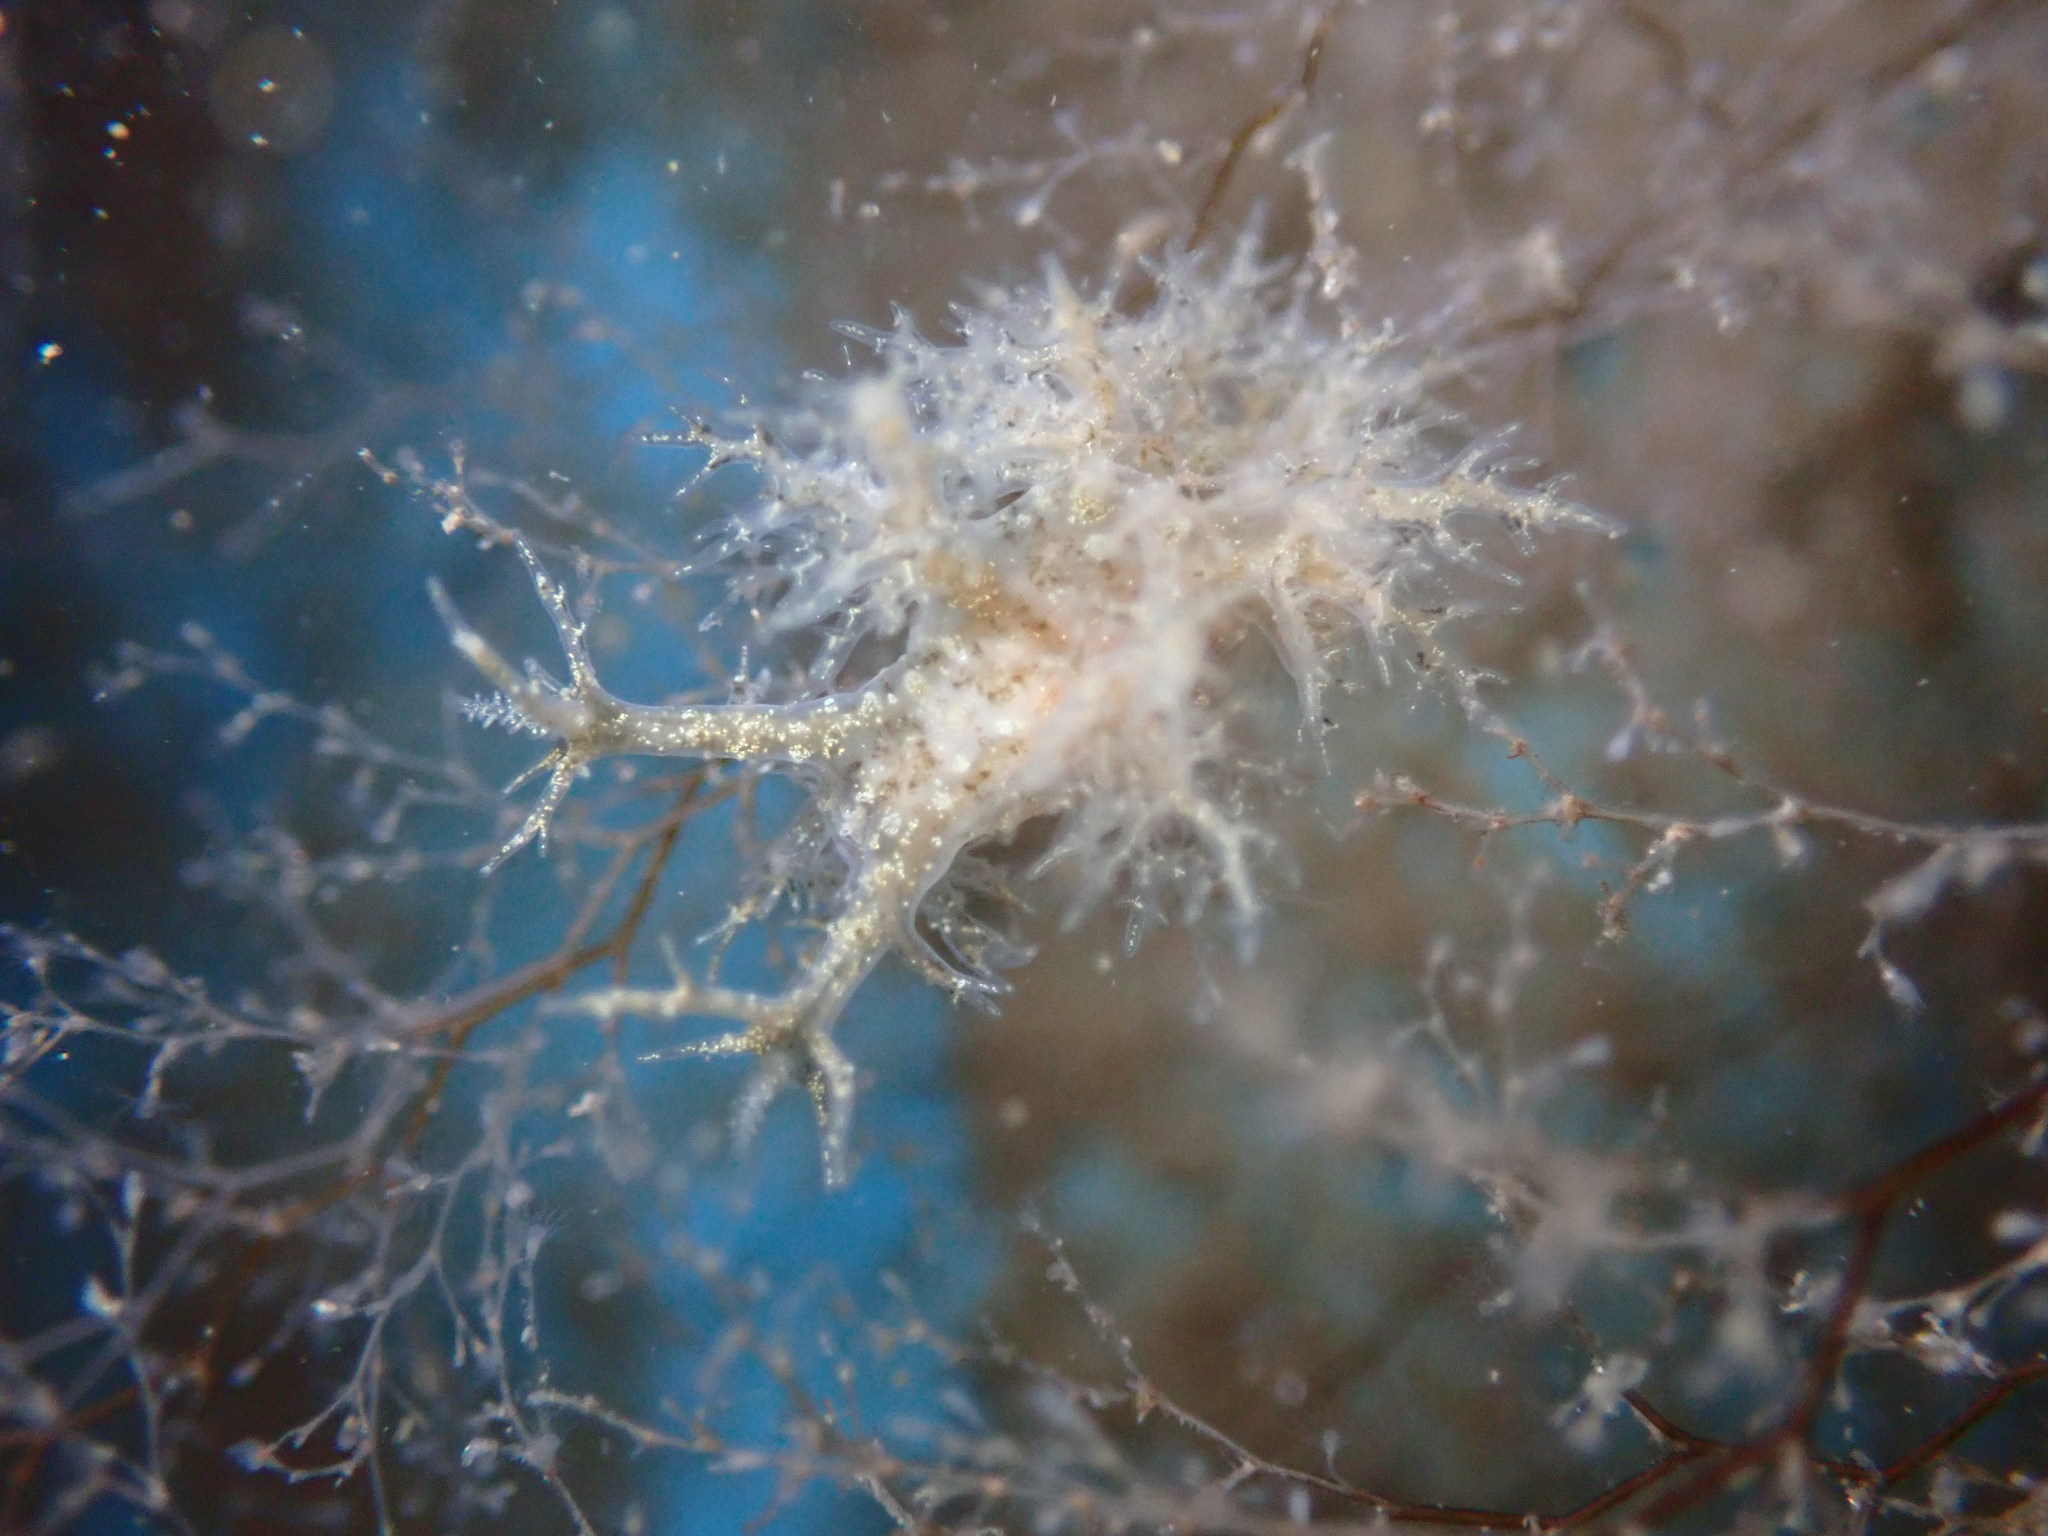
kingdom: Animalia
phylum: Mollusca
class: Gastropoda
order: Nudibranchia
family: Dendronotidae
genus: Dendronotus
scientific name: Dendronotus venustus
